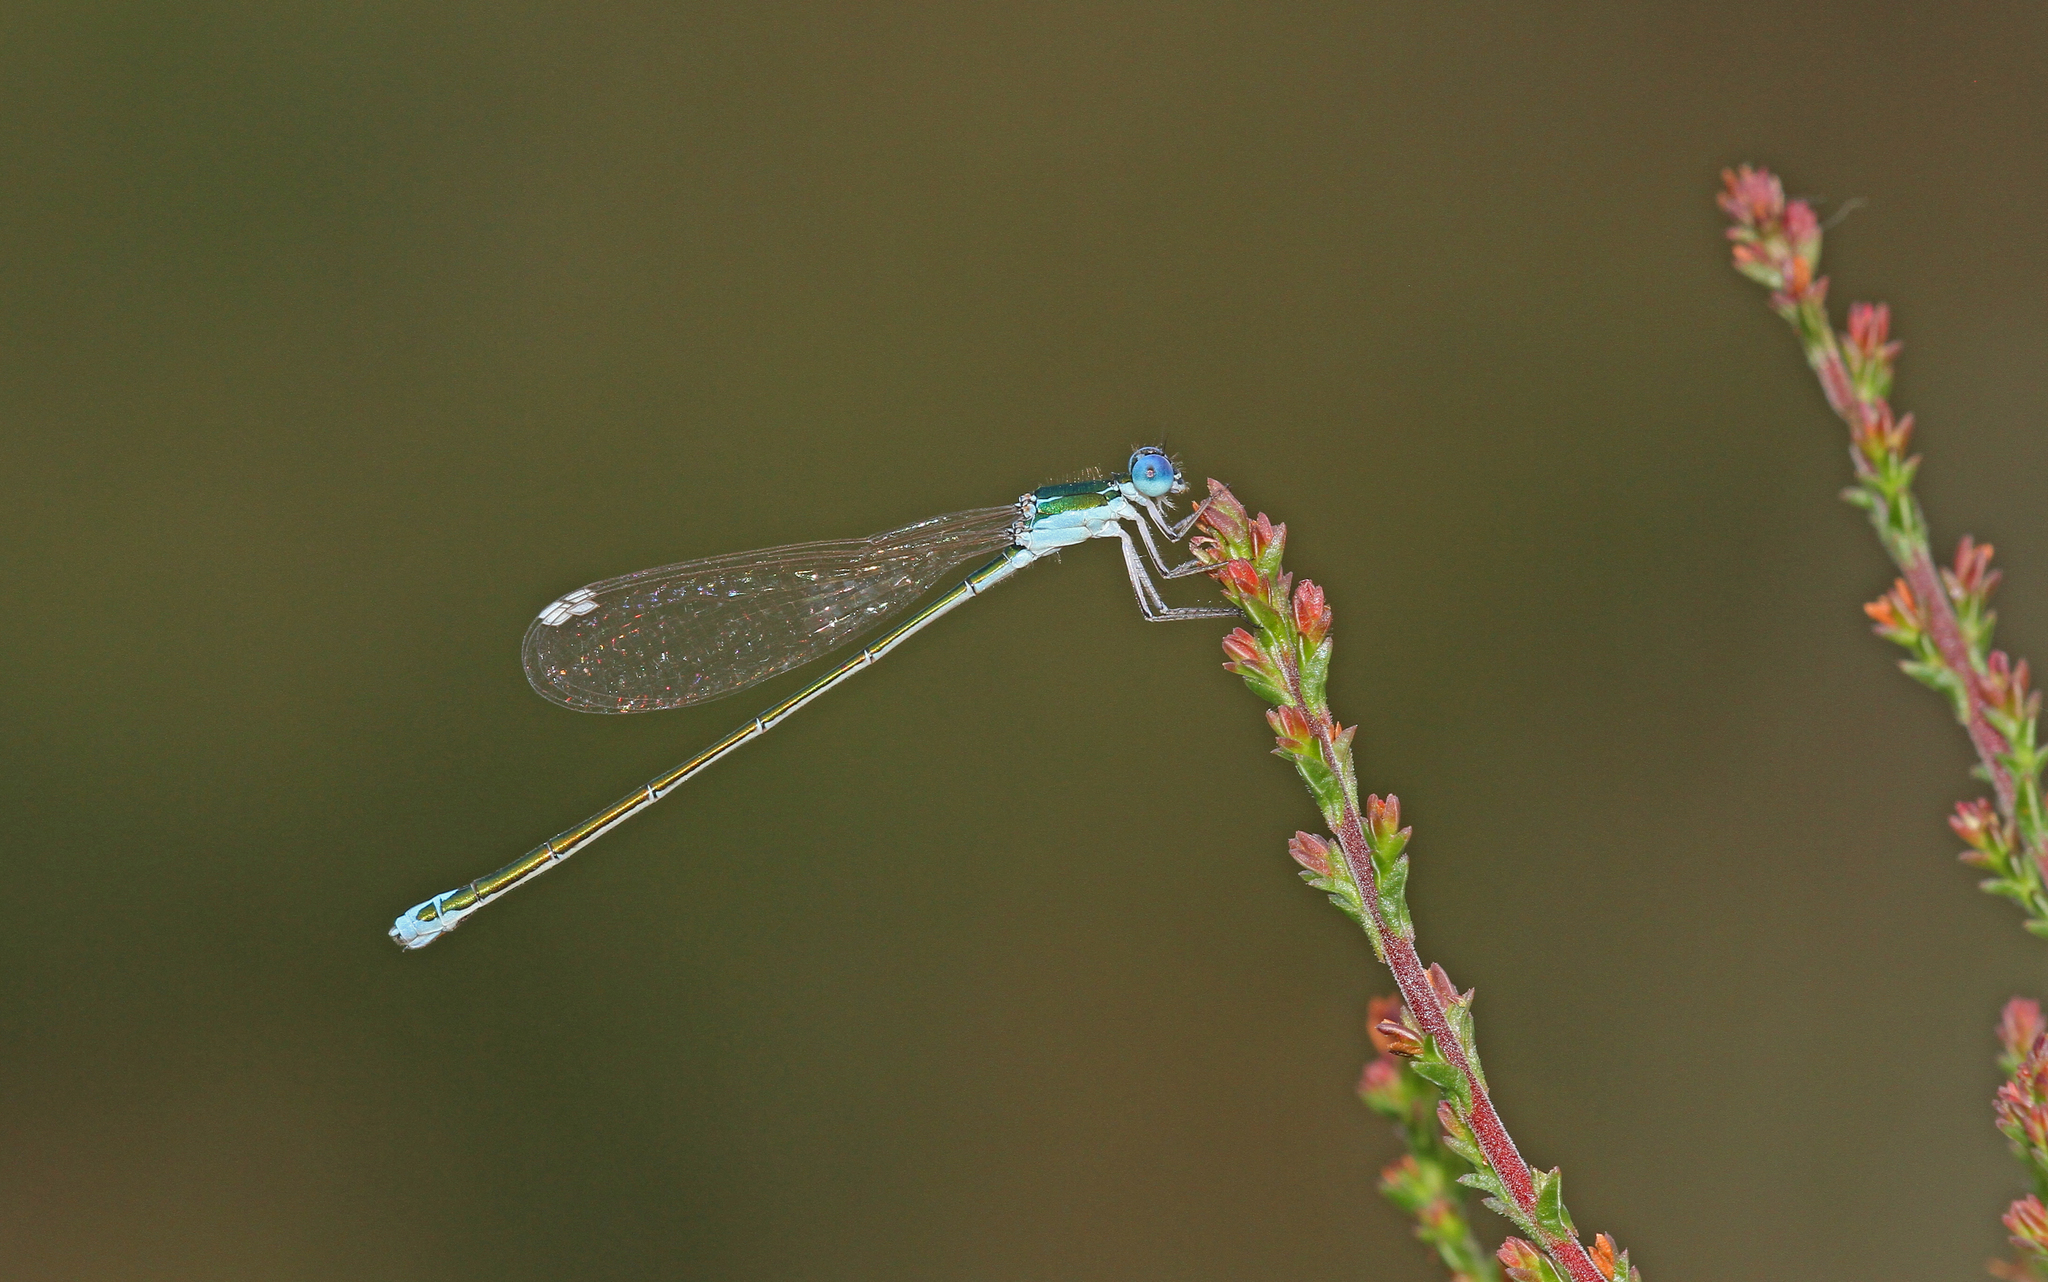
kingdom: Animalia
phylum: Arthropoda
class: Insecta
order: Odonata
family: Coenagrionidae
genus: Nehalennia
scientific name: Nehalennia speciosa
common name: Sedgling
